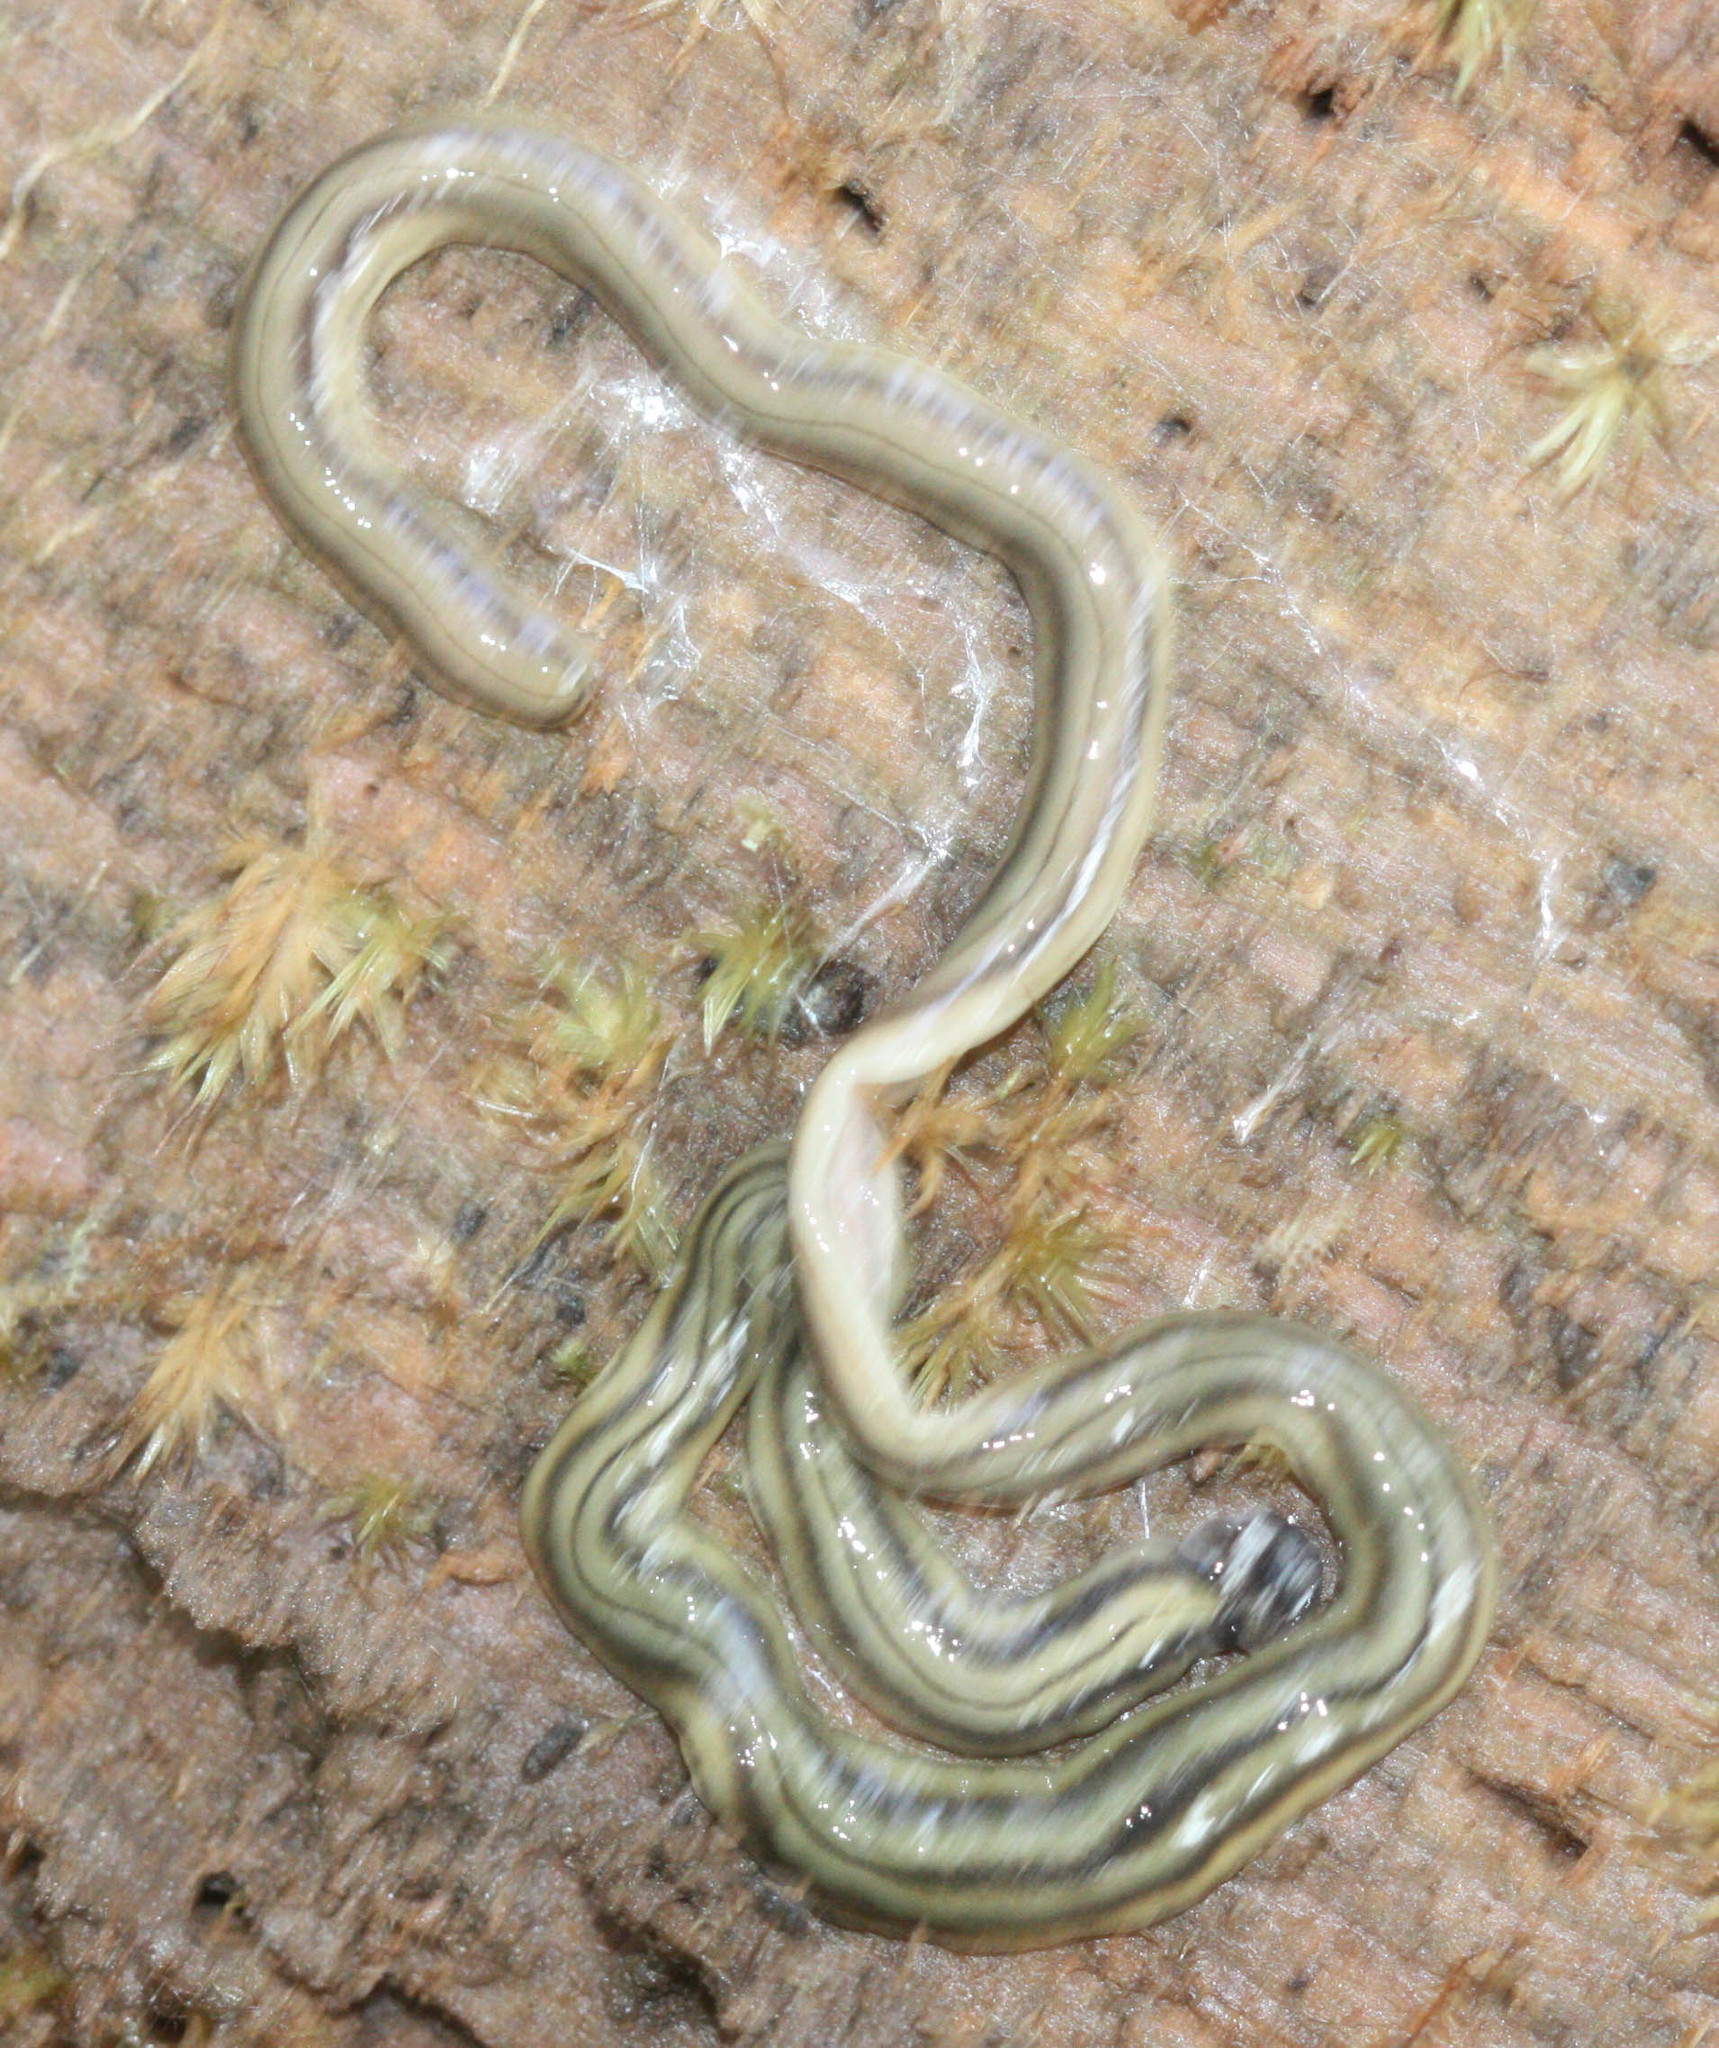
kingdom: Animalia
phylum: Platyhelminthes
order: Tricladida
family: Geoplanidae
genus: Bipalium
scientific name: Bipalium kewense
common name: Hammerhead flatworm
